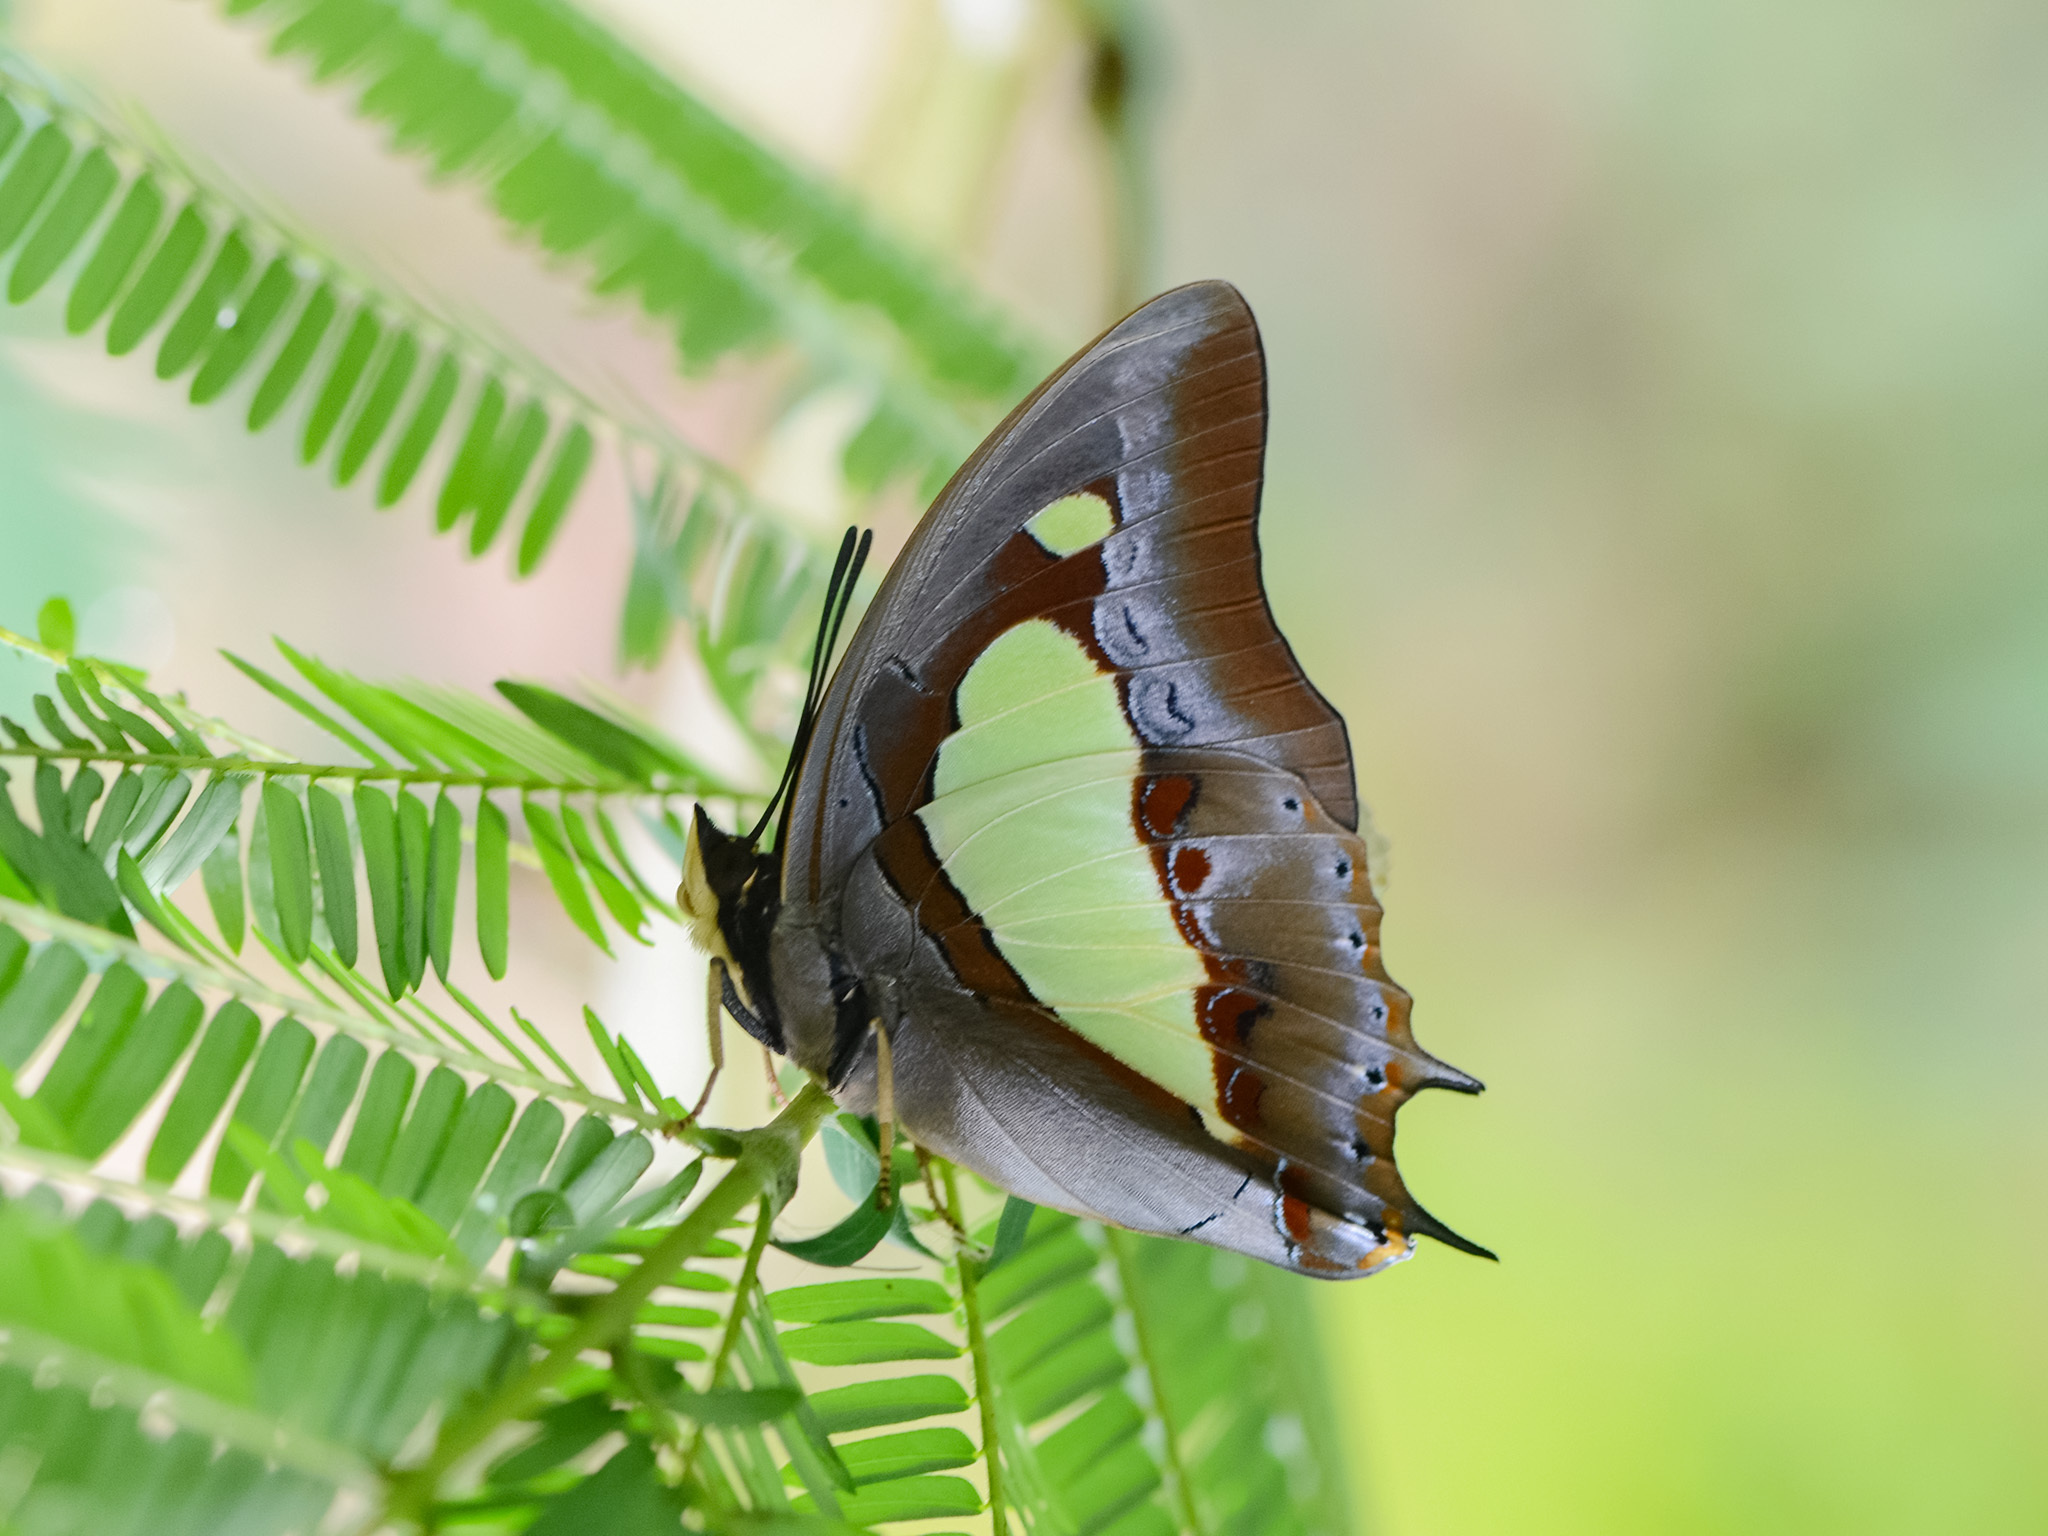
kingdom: Animalia
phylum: Arthropoda
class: Insecta
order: Lepidoptera
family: Nymphalidae
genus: Polyura
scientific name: Polyura athamas
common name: Common nawab
